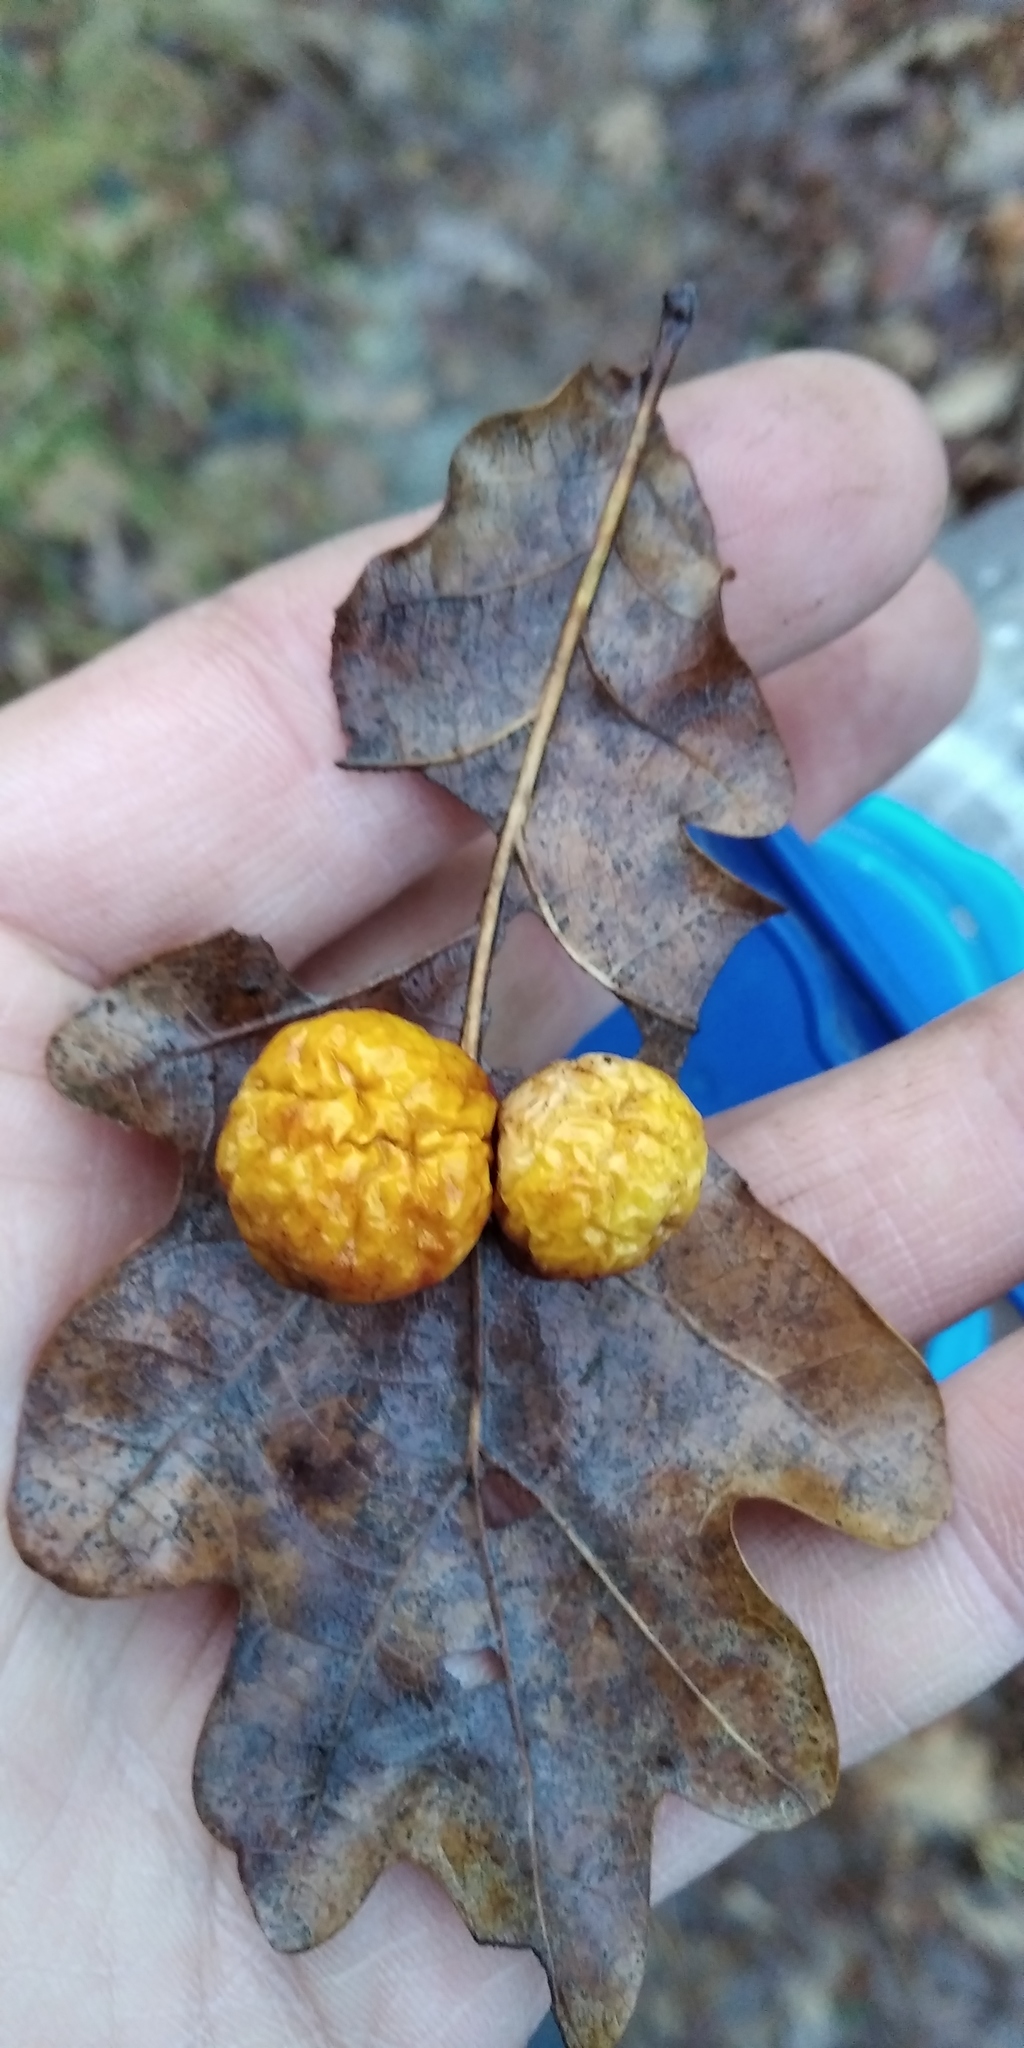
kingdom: Animalia
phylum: Arthropoda
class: Insecta
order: Hymenoptera
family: Cynipidae
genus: Cynips
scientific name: Cynips quercusfolii
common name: Cherry gall
